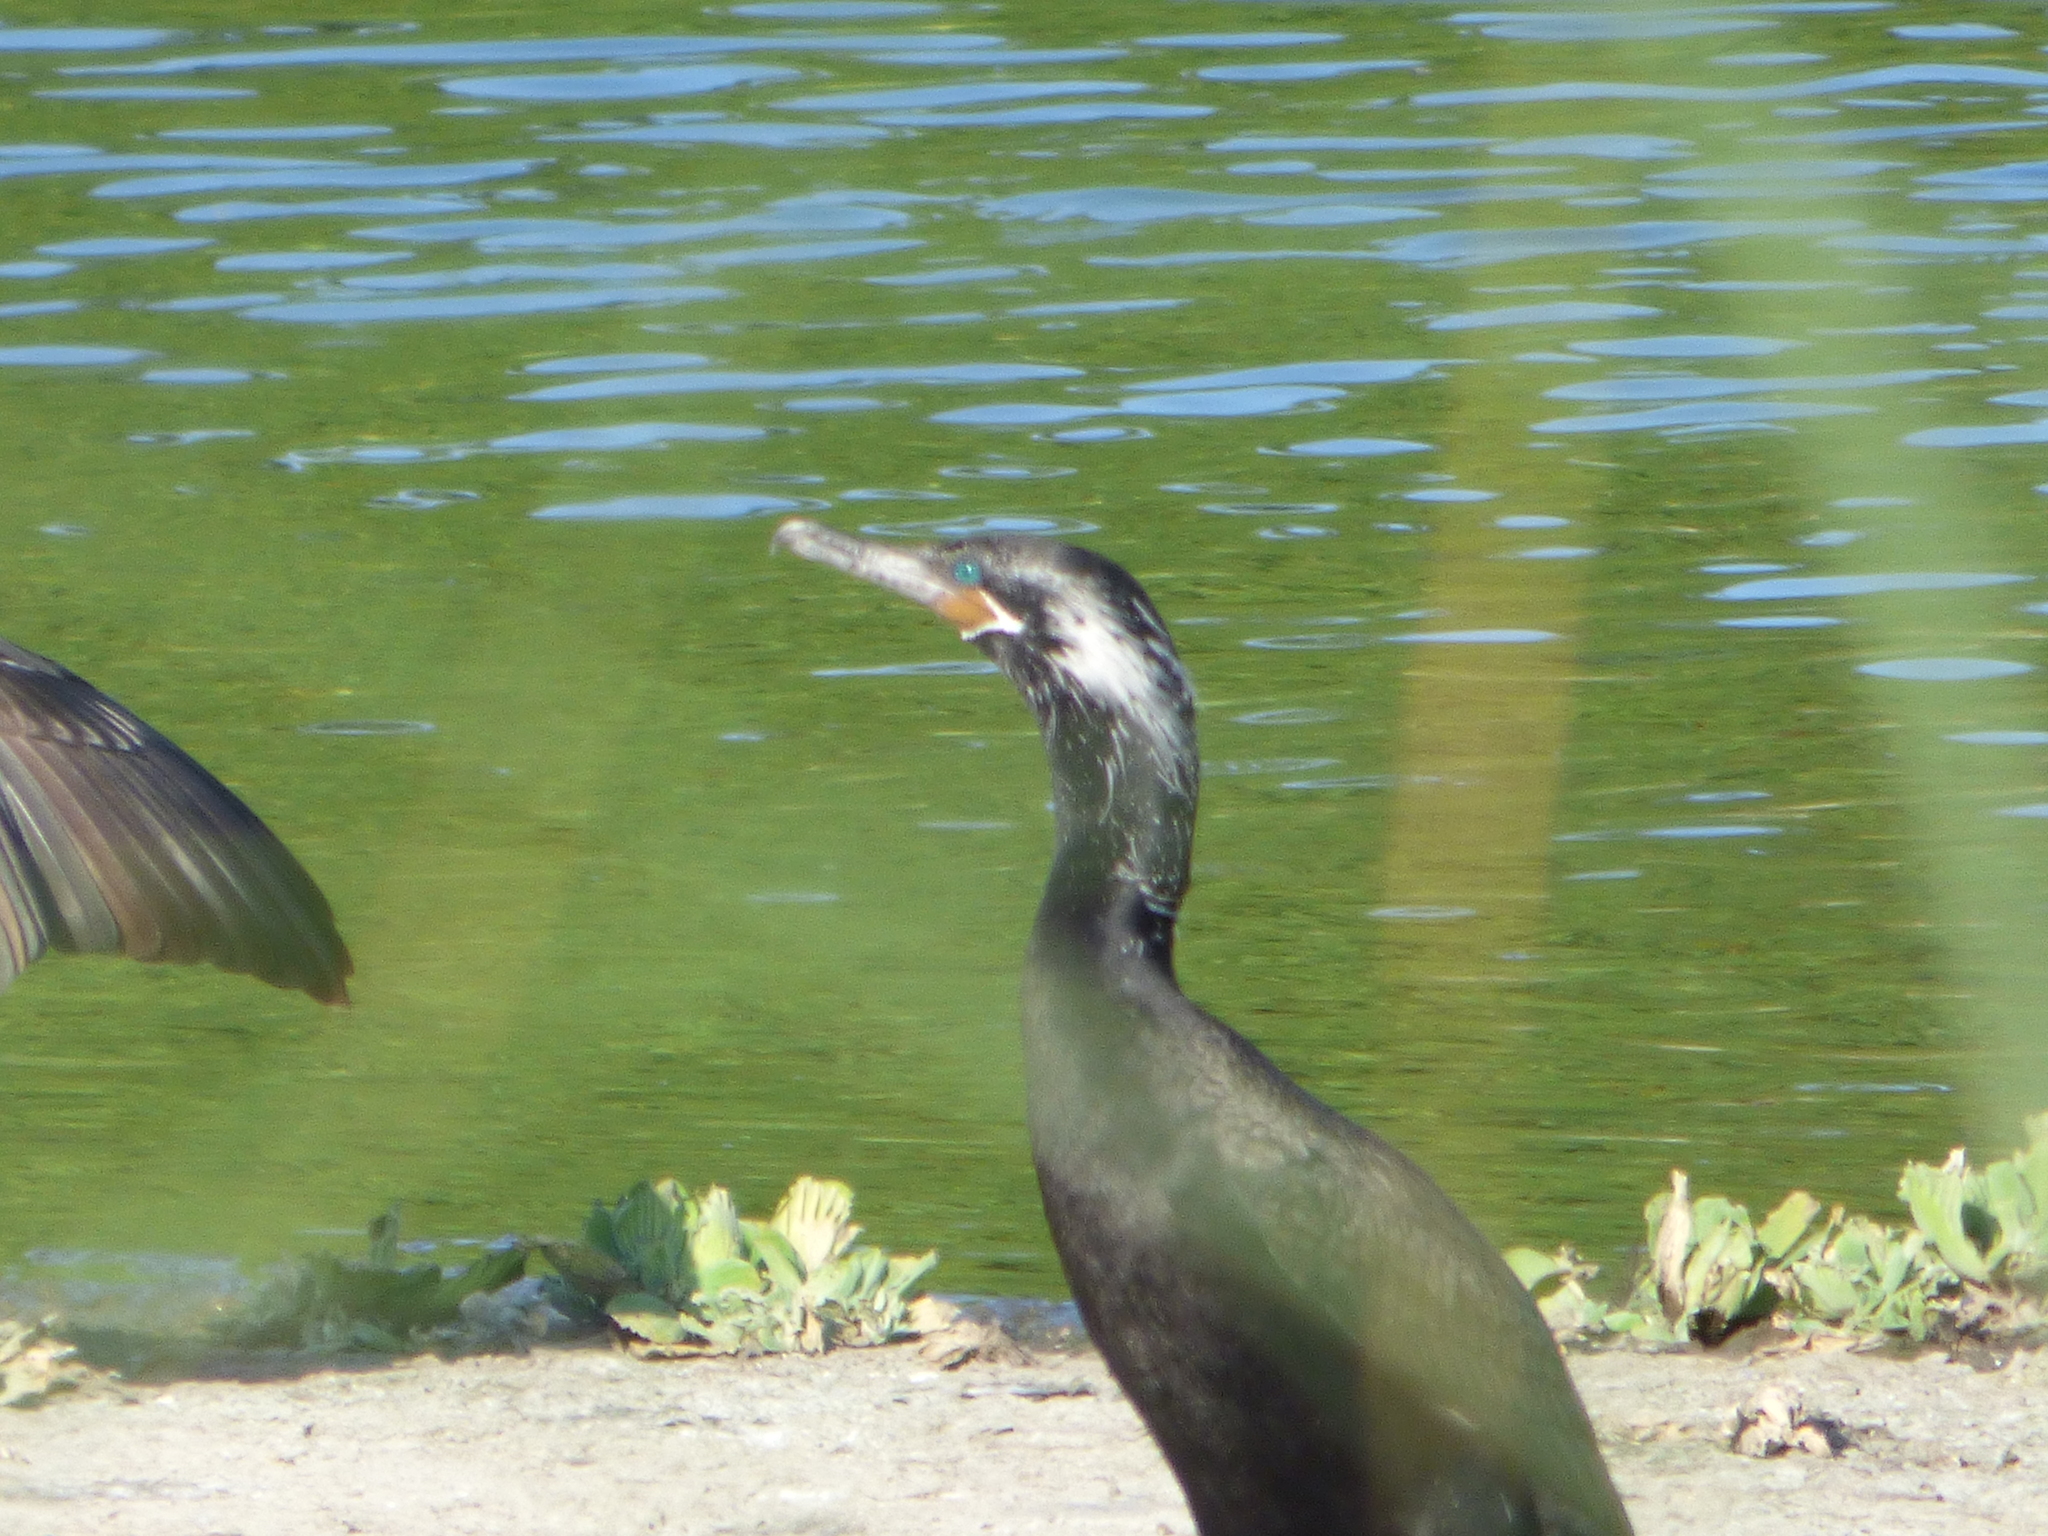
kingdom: Animalia
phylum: Chordata
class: Aves
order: Suliformes
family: Phalacrocoracidae
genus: Phalacrocorax
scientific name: Phalacrocorax brasilianus
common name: Neotropic cormorant
